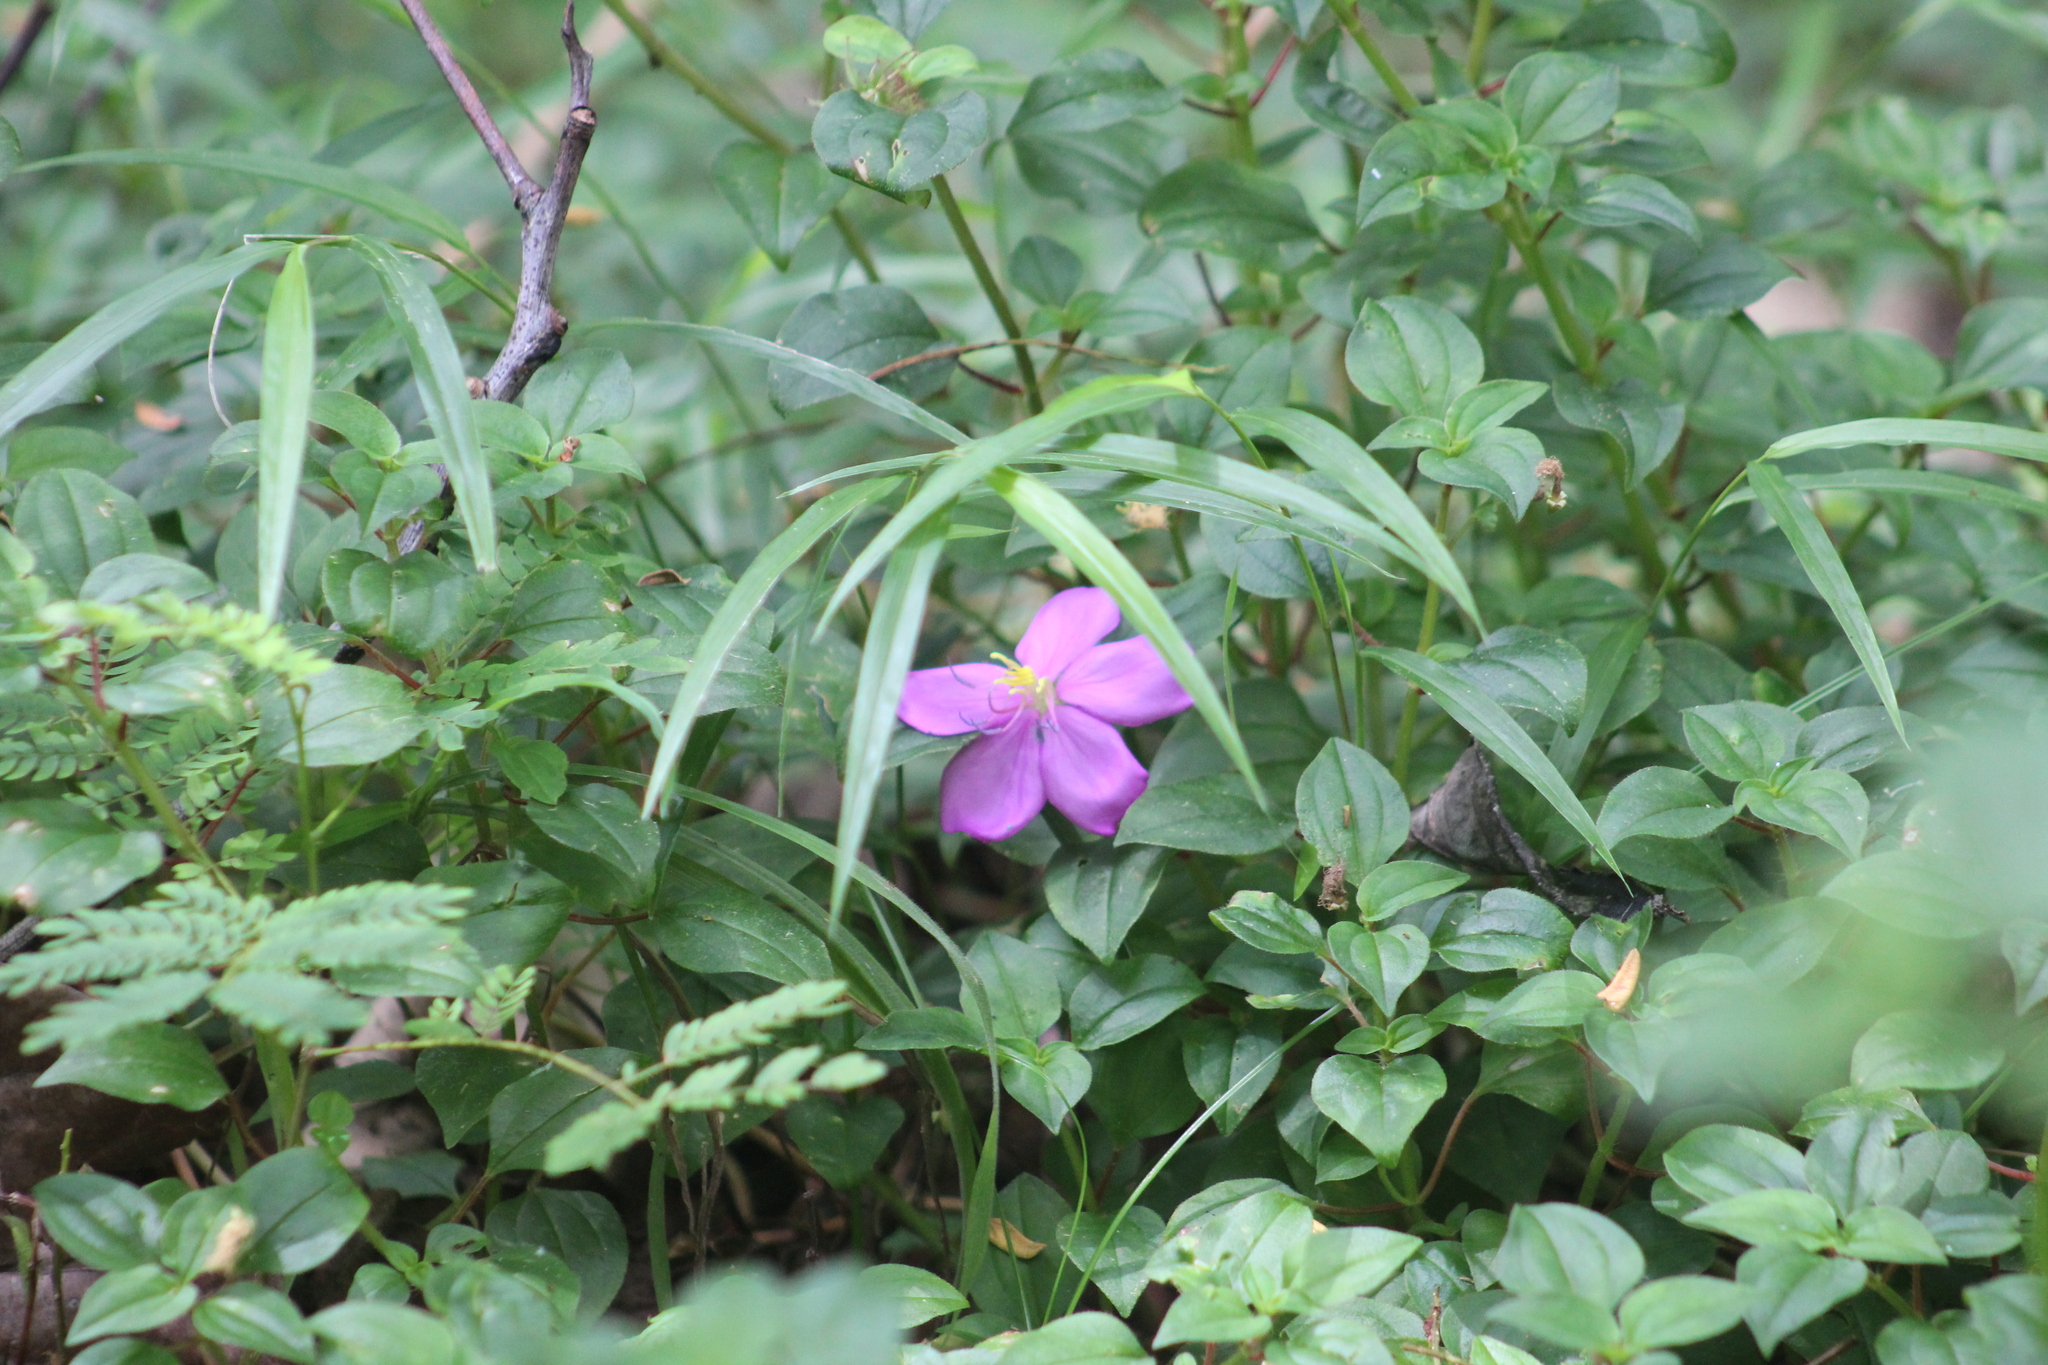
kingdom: Plantae
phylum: Tracheophyta
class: Magnoliopsida
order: Myrtales
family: Melastomataceae
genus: Heterotis
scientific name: Heterotis rotundifolia
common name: Pinklady
